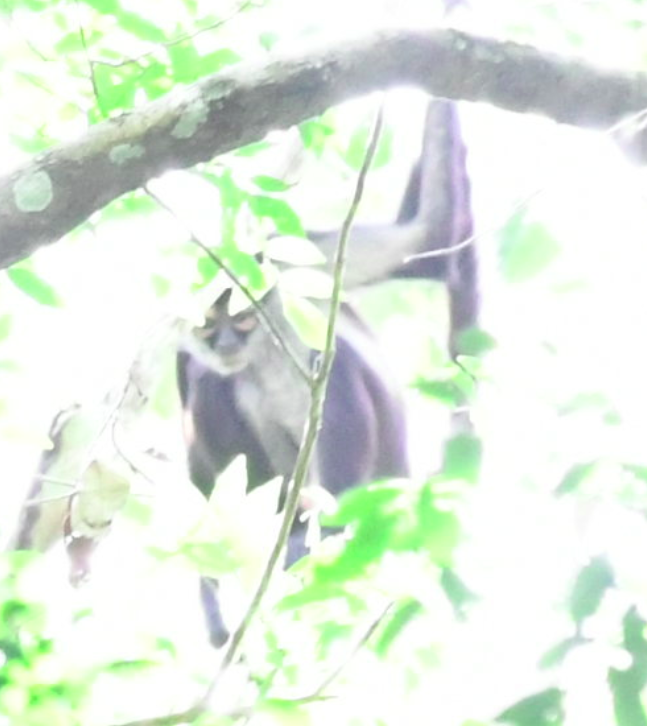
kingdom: Animalia
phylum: Chordata
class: Mammalia
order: Primates
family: Atelidae
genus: Ateles
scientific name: Ateles geoffroyi
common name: Black-handed spider monkey
